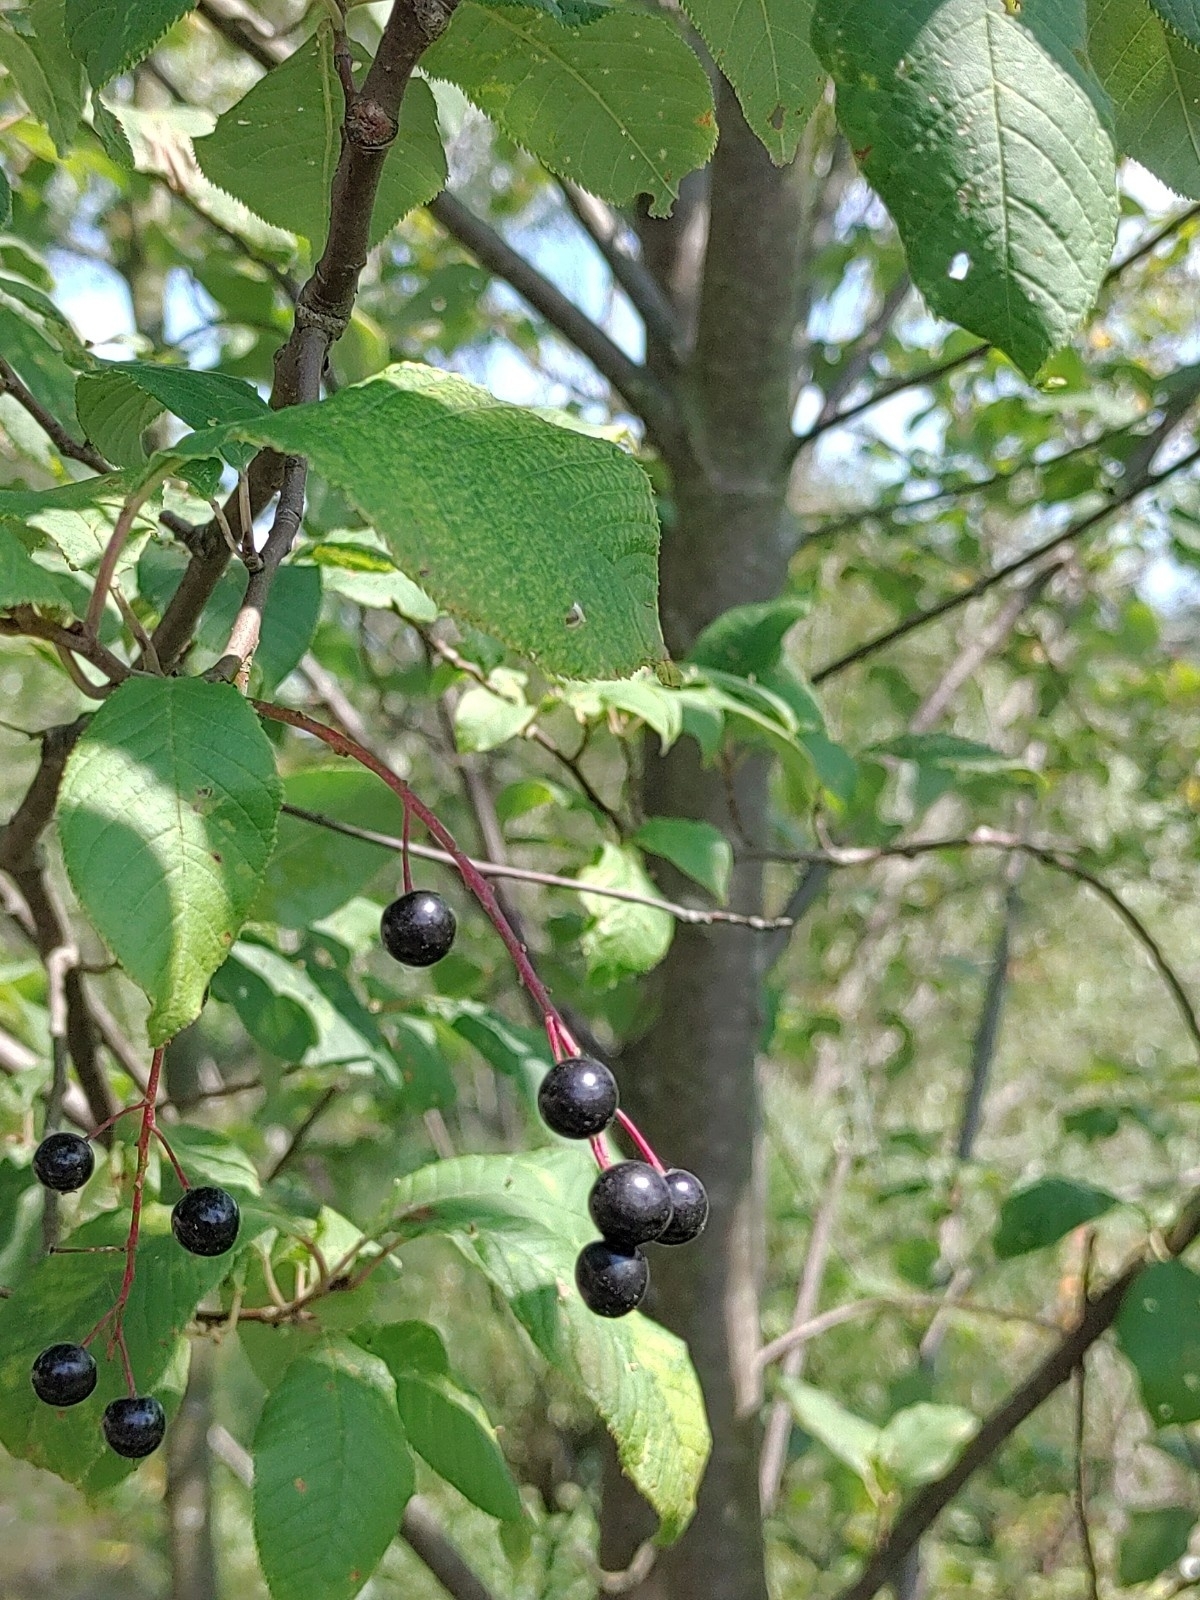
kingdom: Plantae
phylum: Tracheophyta
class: Magnoliopsida
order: Rosales
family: Rosaceae
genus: Prunus
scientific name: Prunus padus
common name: Bird cherry
